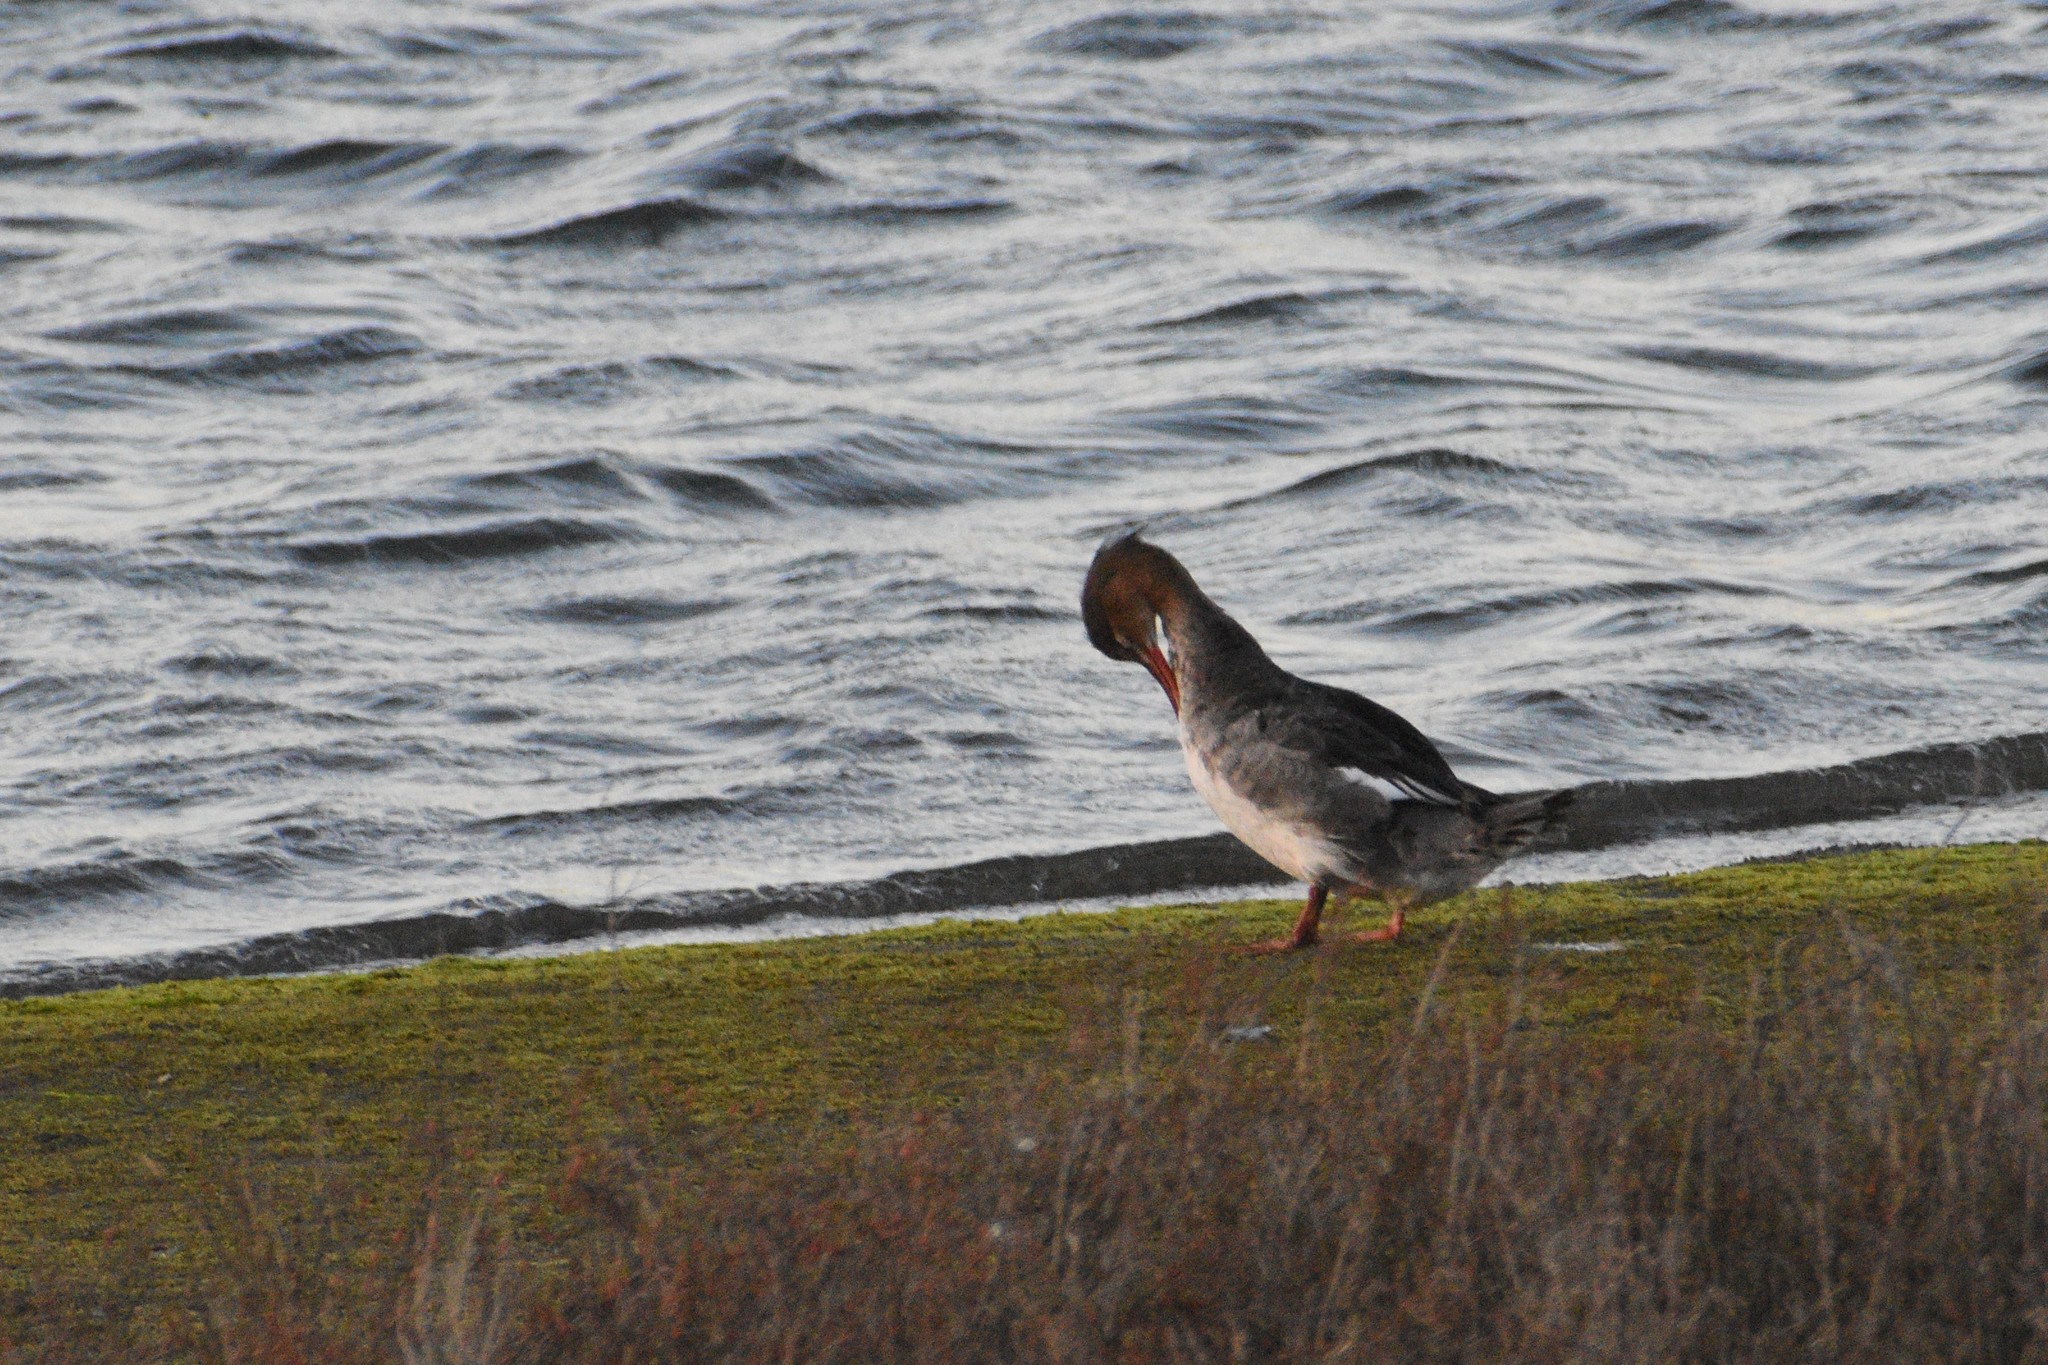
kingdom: Animalia
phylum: Chordata
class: Aves
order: Anseriformes
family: Anatidae
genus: Mergus
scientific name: Mergus serrator
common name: Red-breasted merganser
